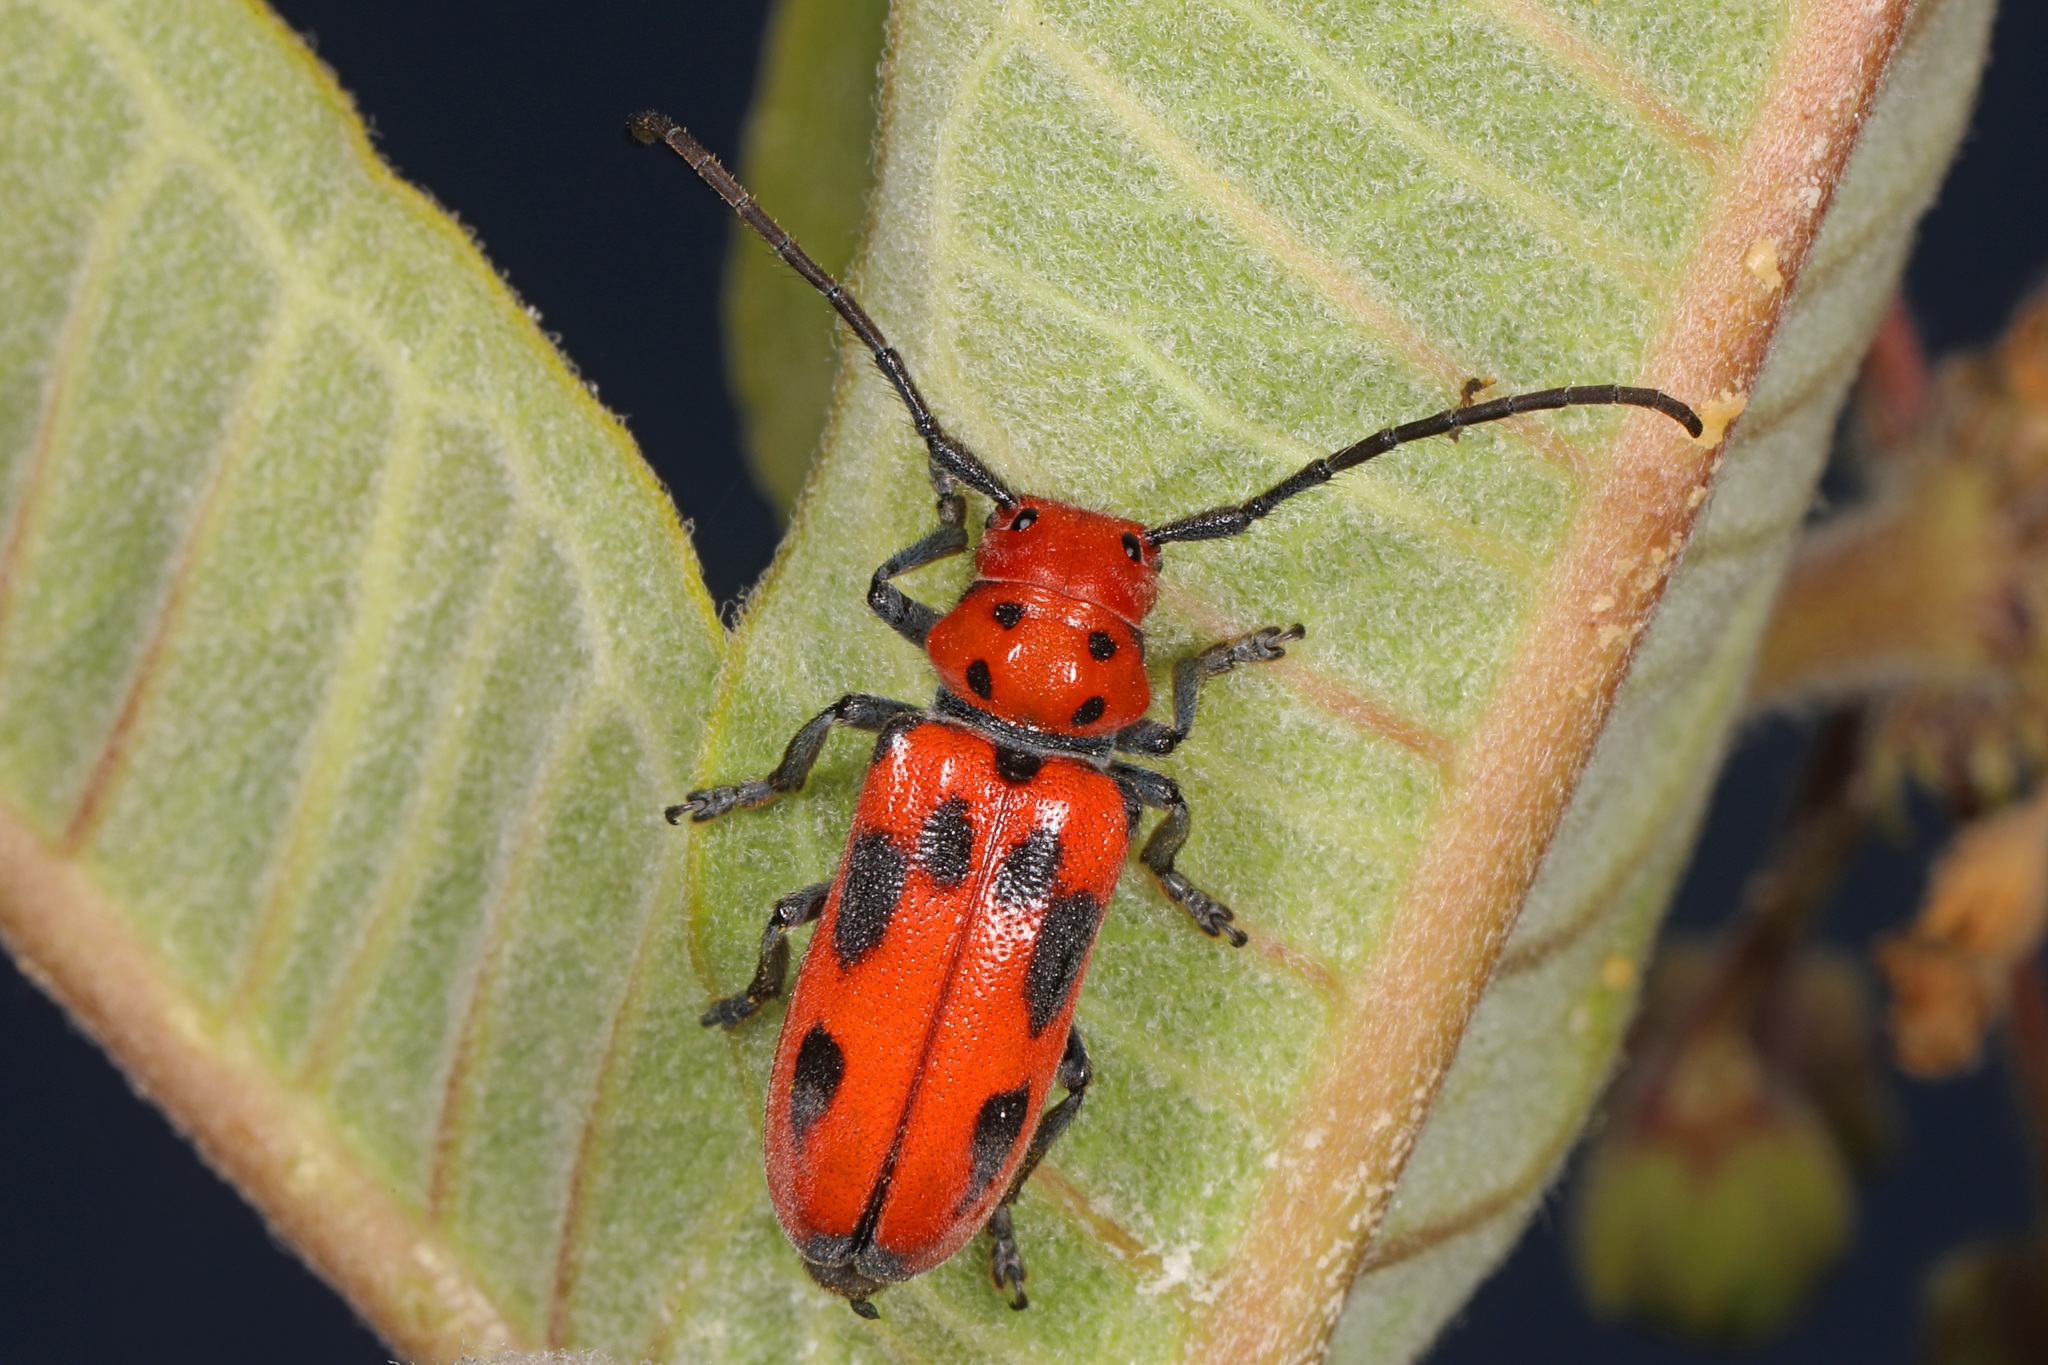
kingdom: Animalia
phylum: Arthropoda
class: Insecta
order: Coleoptera
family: Cerambycidae
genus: Tetraopes
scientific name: Tetraopes tetrophthalmus
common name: Red milkweed beetle
